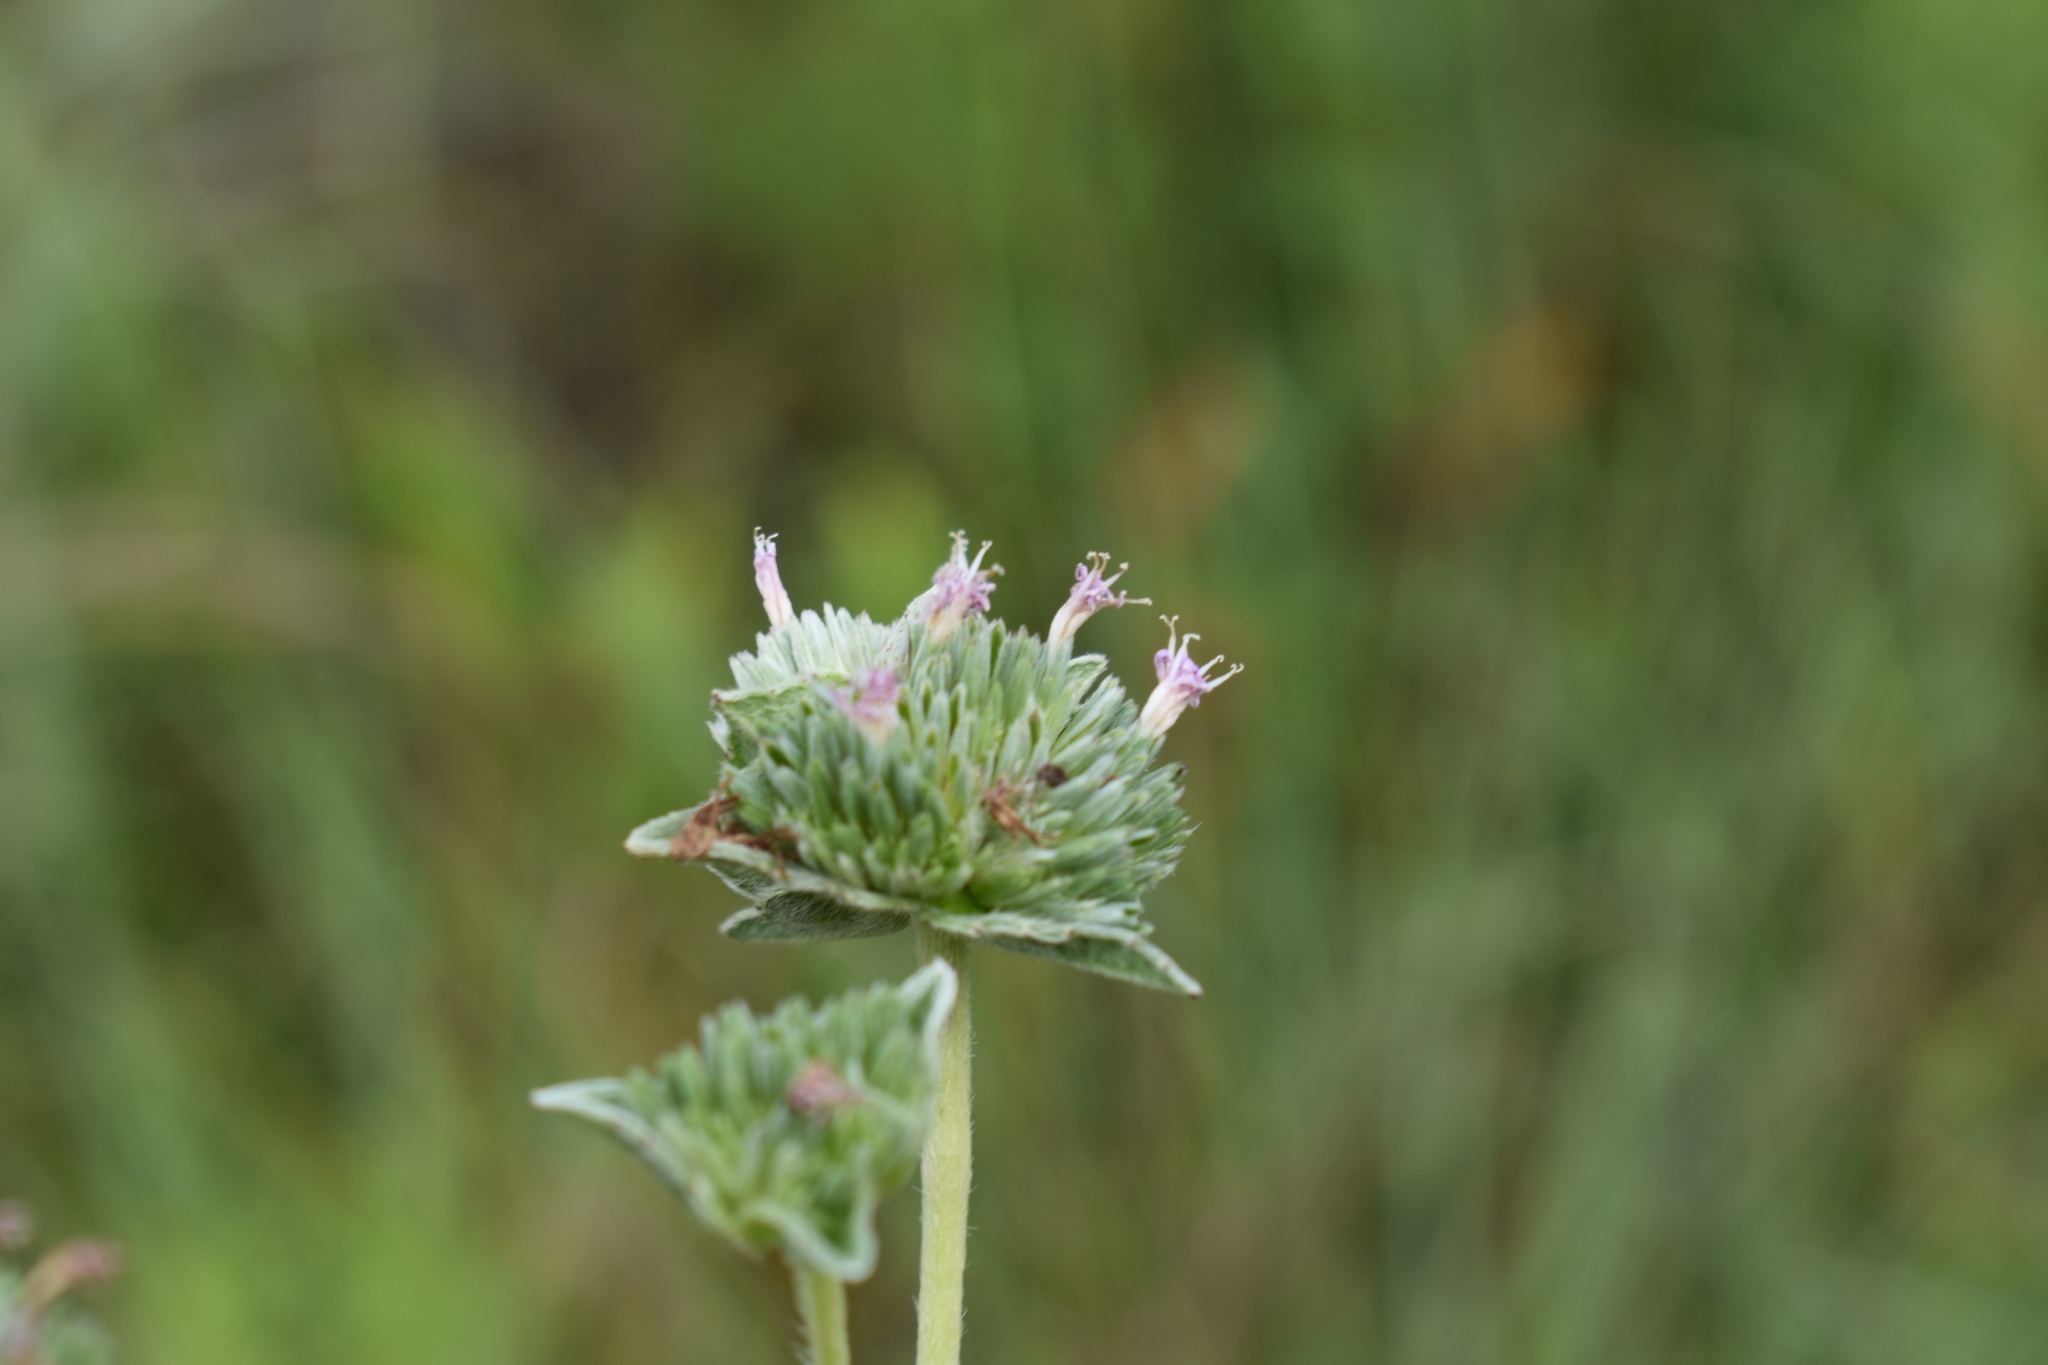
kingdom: Plantae
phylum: Tracheophyta
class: Magnoliopsida
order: Asterales
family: Asteraceae
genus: Elephantopus
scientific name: Elephantopus elatus
